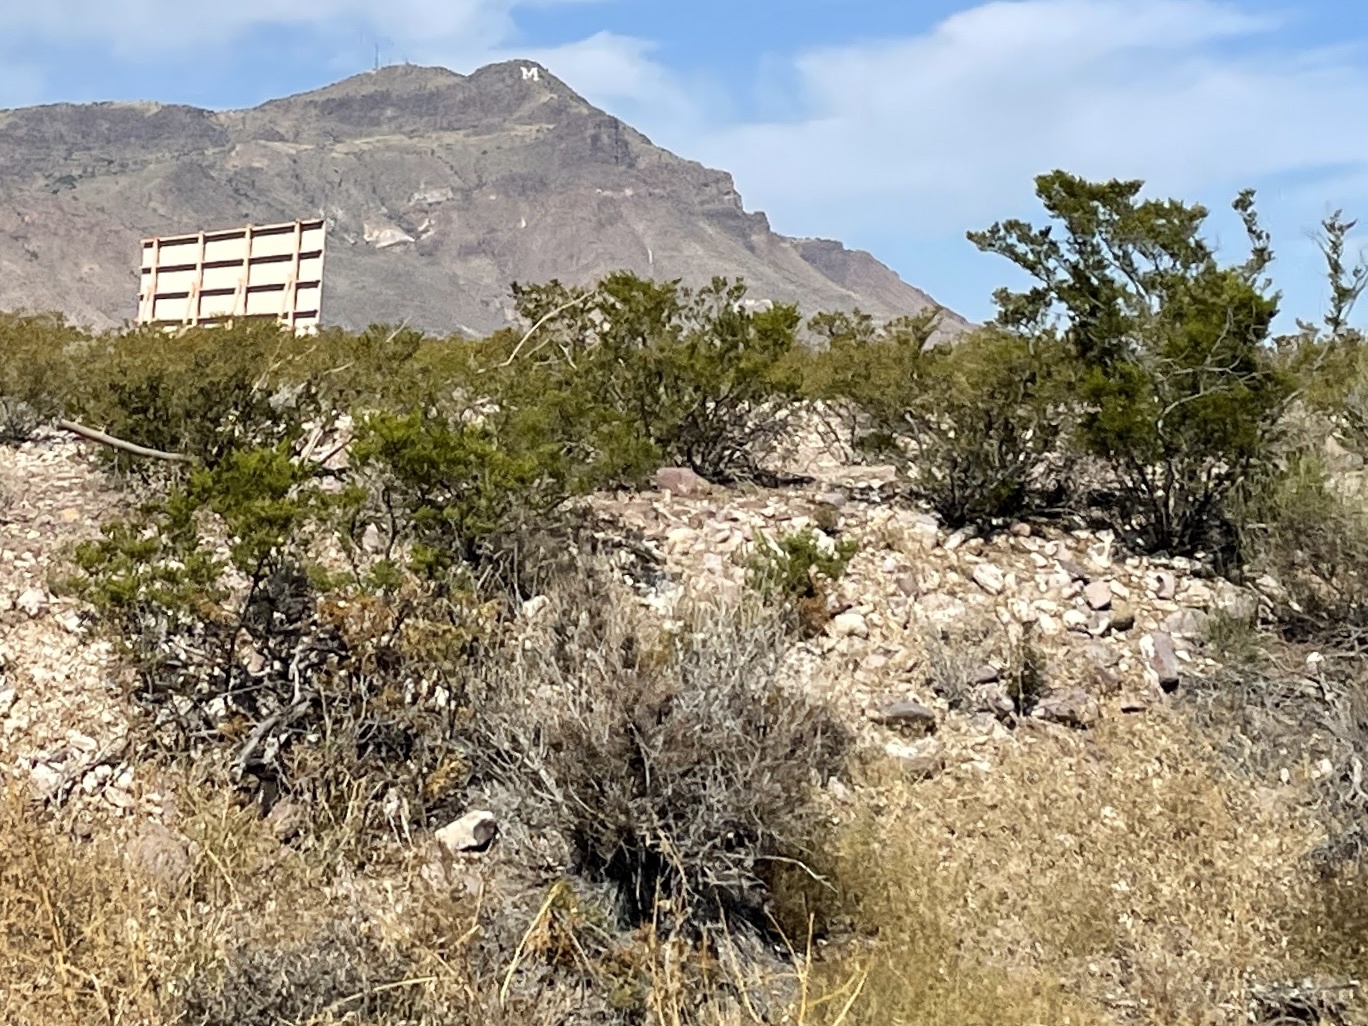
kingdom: Plantae
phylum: Tracheophyta
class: Magnoliopsida
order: Zygophyllales
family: Zygophyllaceae
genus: Larrea
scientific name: Larrea tridentata
